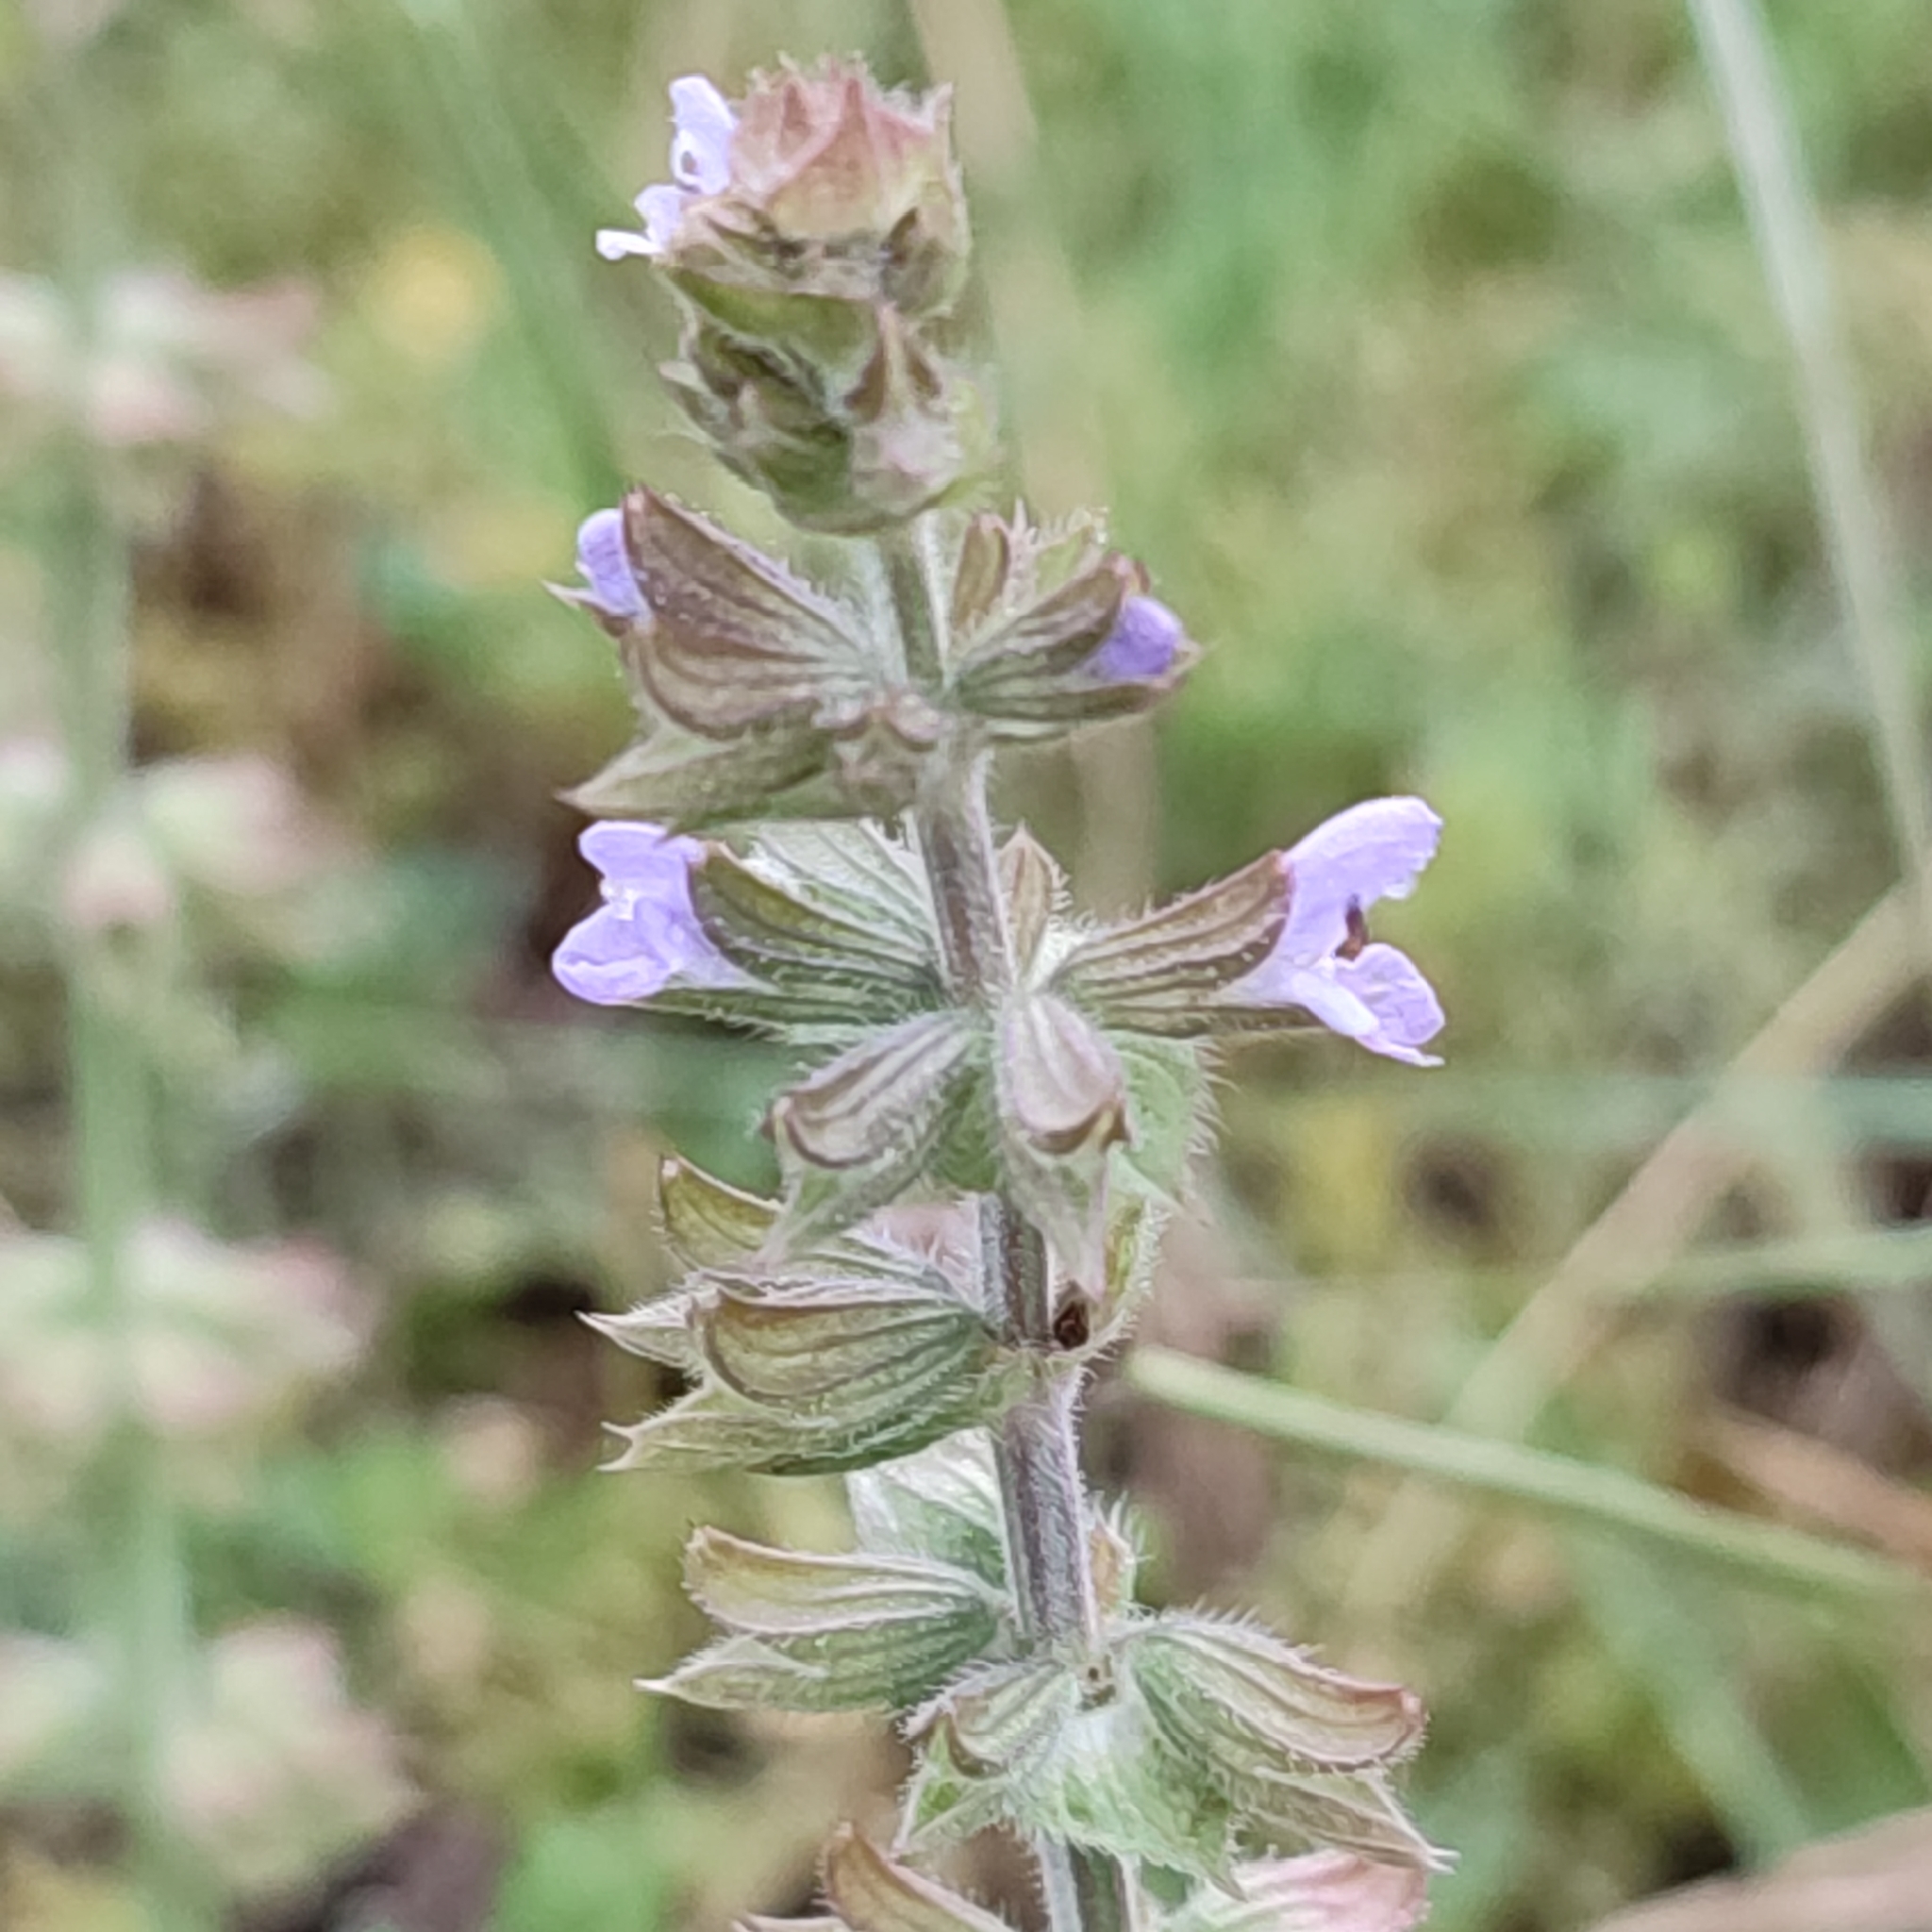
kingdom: Plantae
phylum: Tracheophyta
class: Magnoliopsida
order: Lamiales
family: Lamiaceae
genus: Salvia
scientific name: Salvia verbenaca
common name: Wild clary
